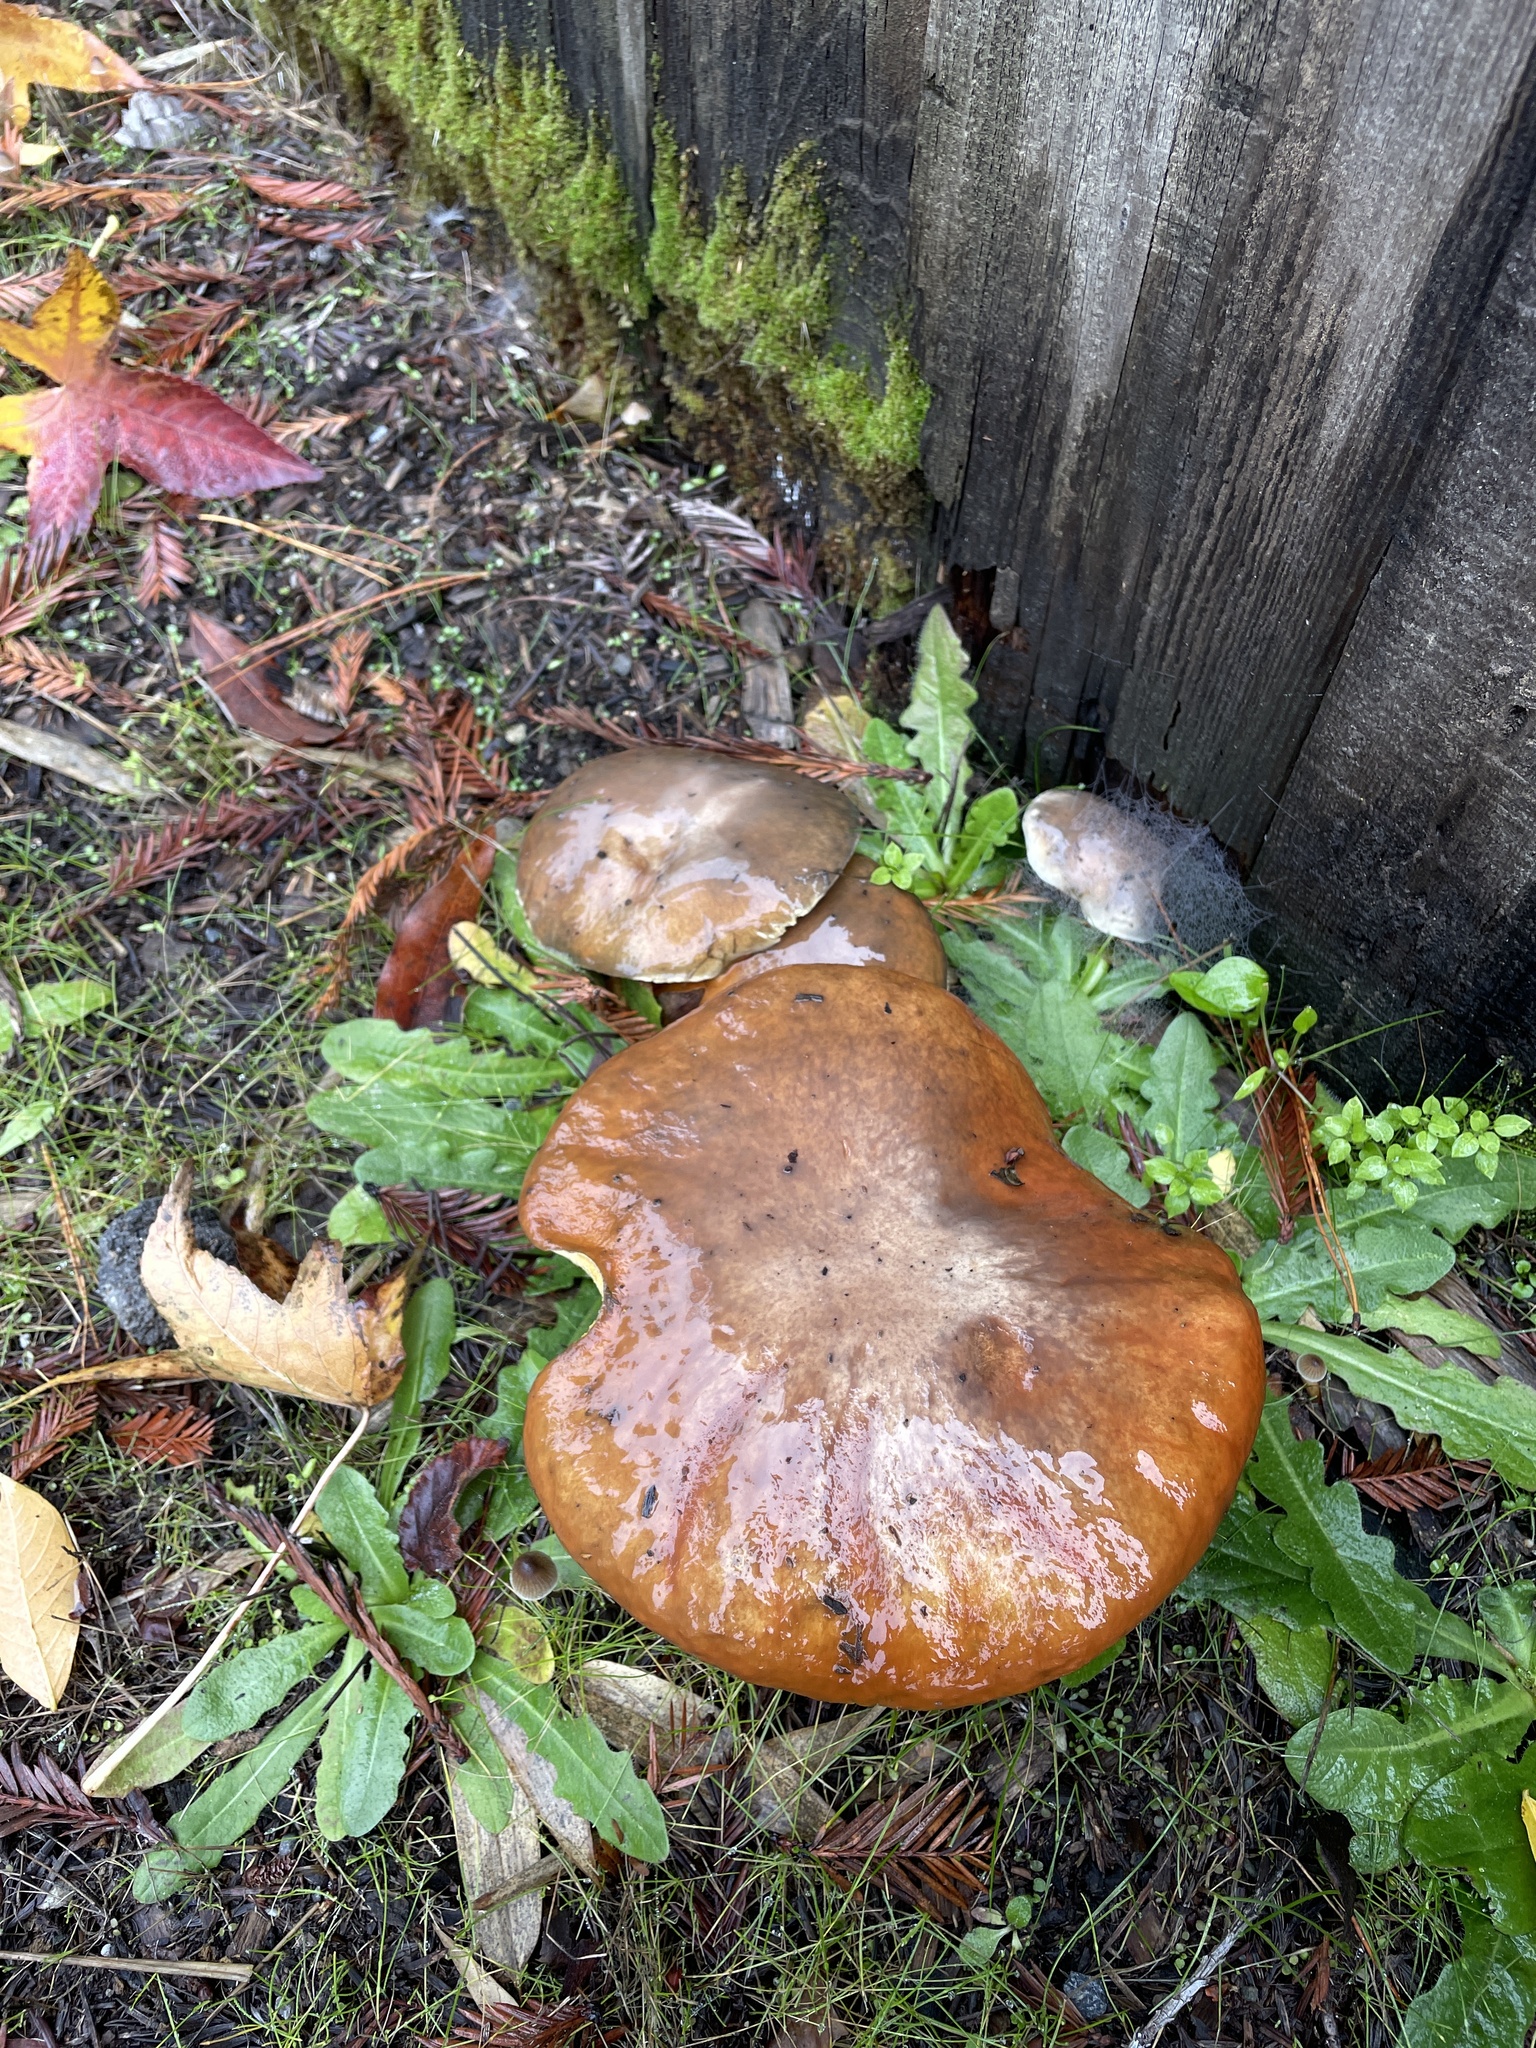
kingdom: Fungi
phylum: Basidiomycota
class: Agaricomycetes
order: Boletales
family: Suillaceae
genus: Suillus
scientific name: Suillus pungens
